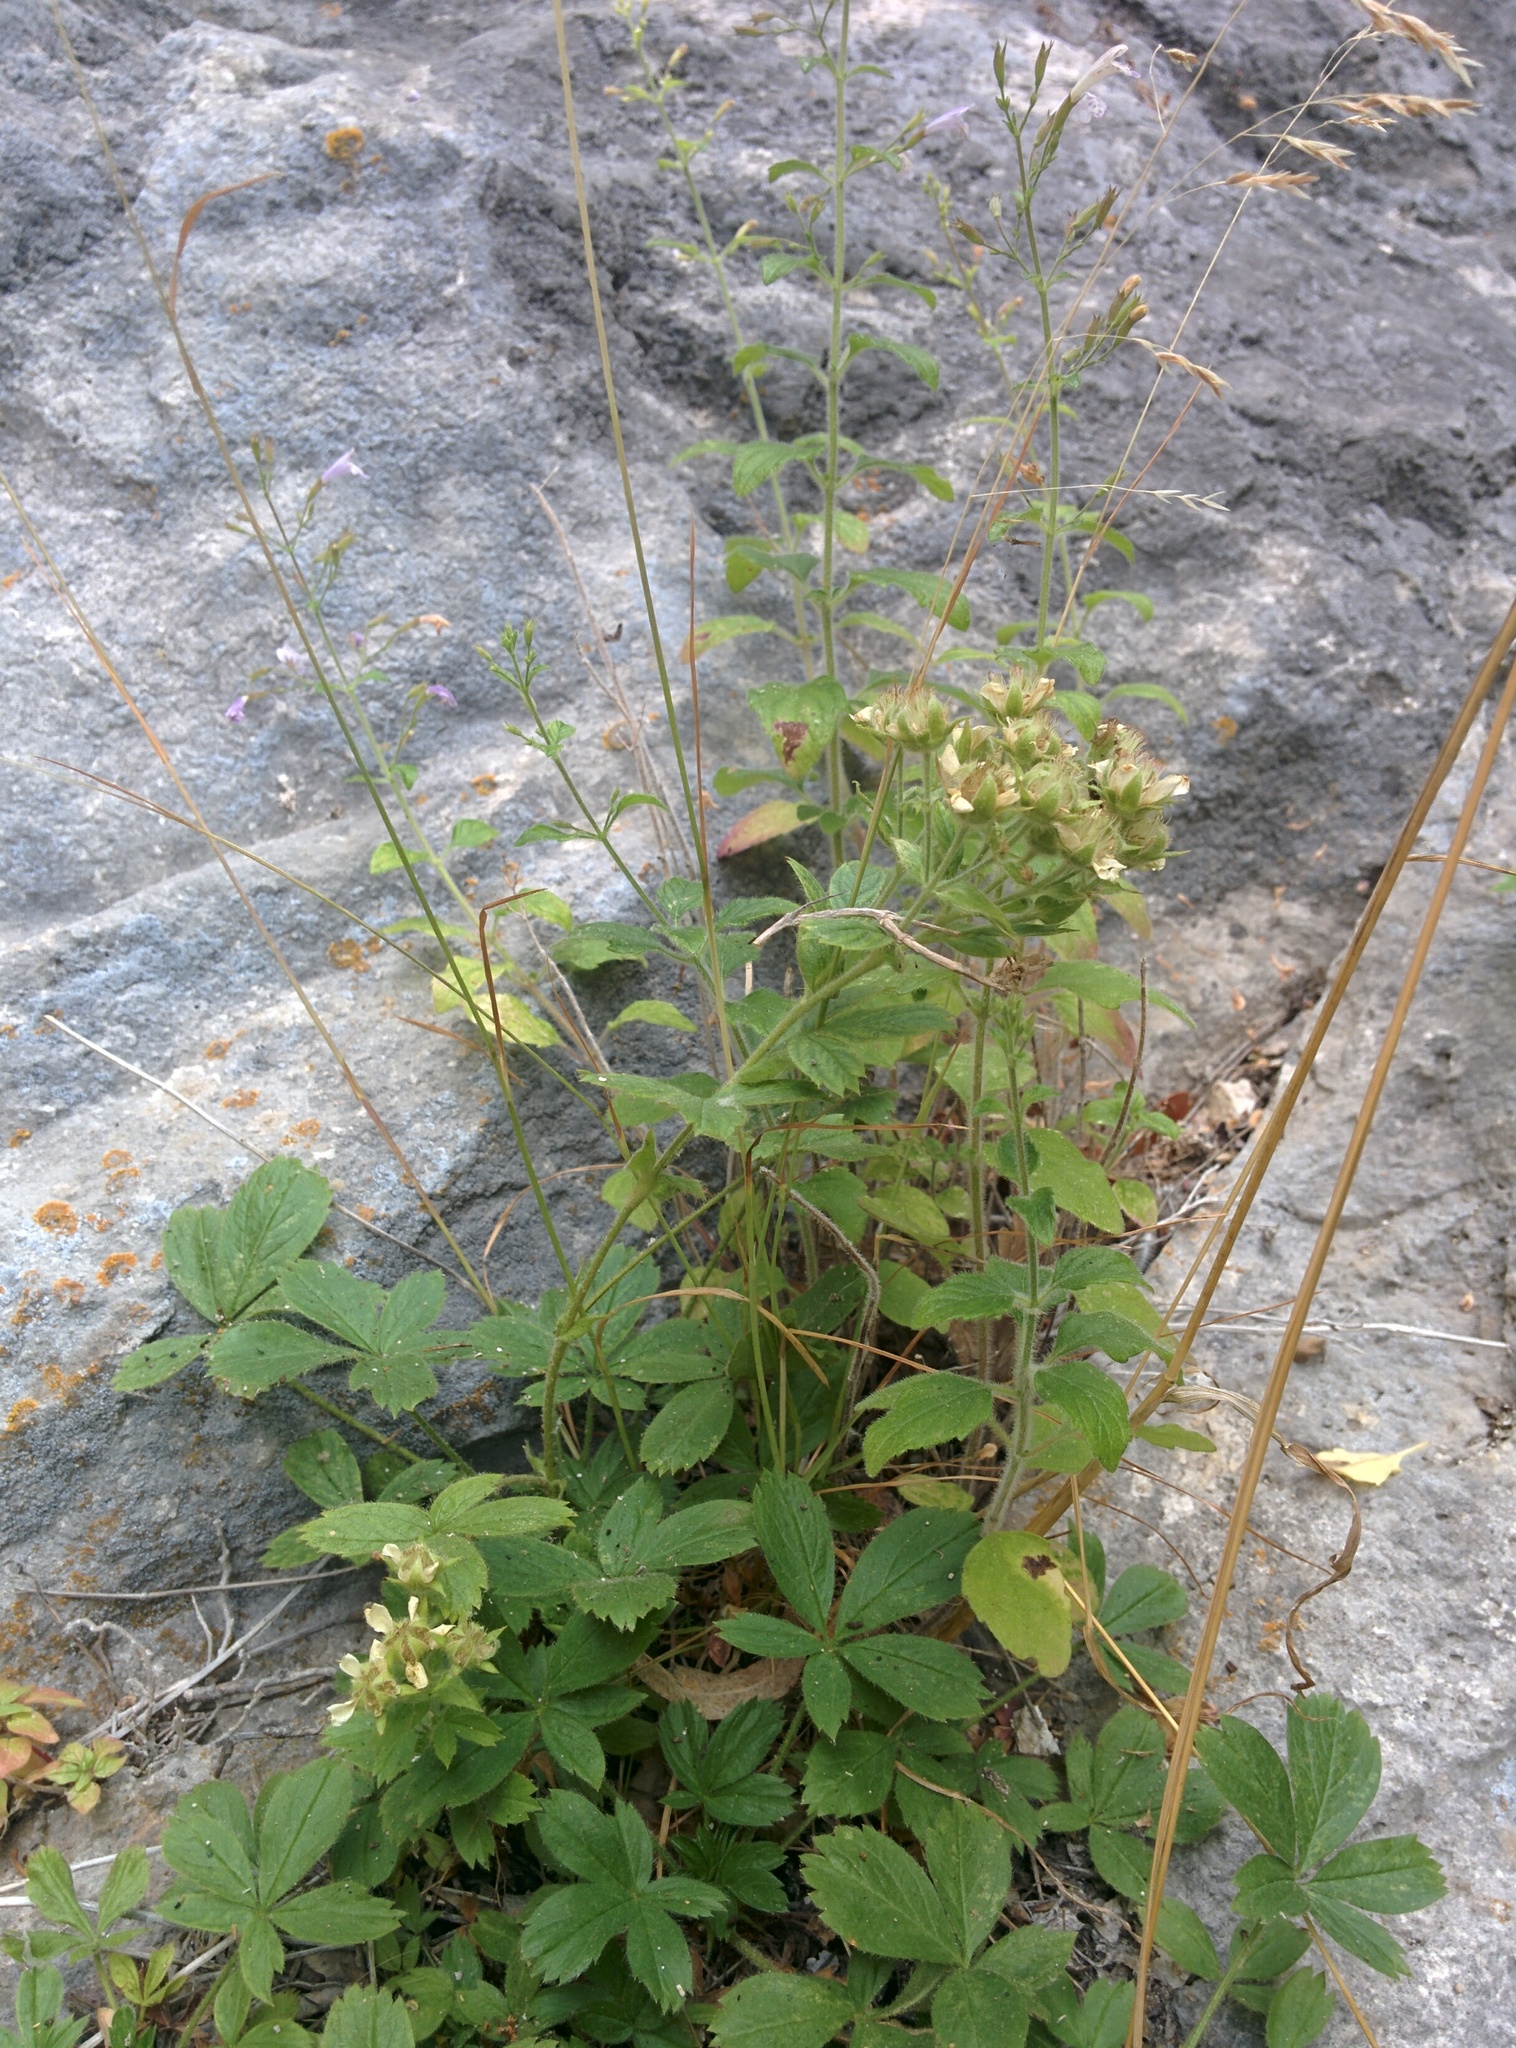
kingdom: Plantae
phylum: Tracheophyta
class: Magnoliopsida
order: Rosales
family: Rosaceae
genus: Potentilla
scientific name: Potentilla caulescens
